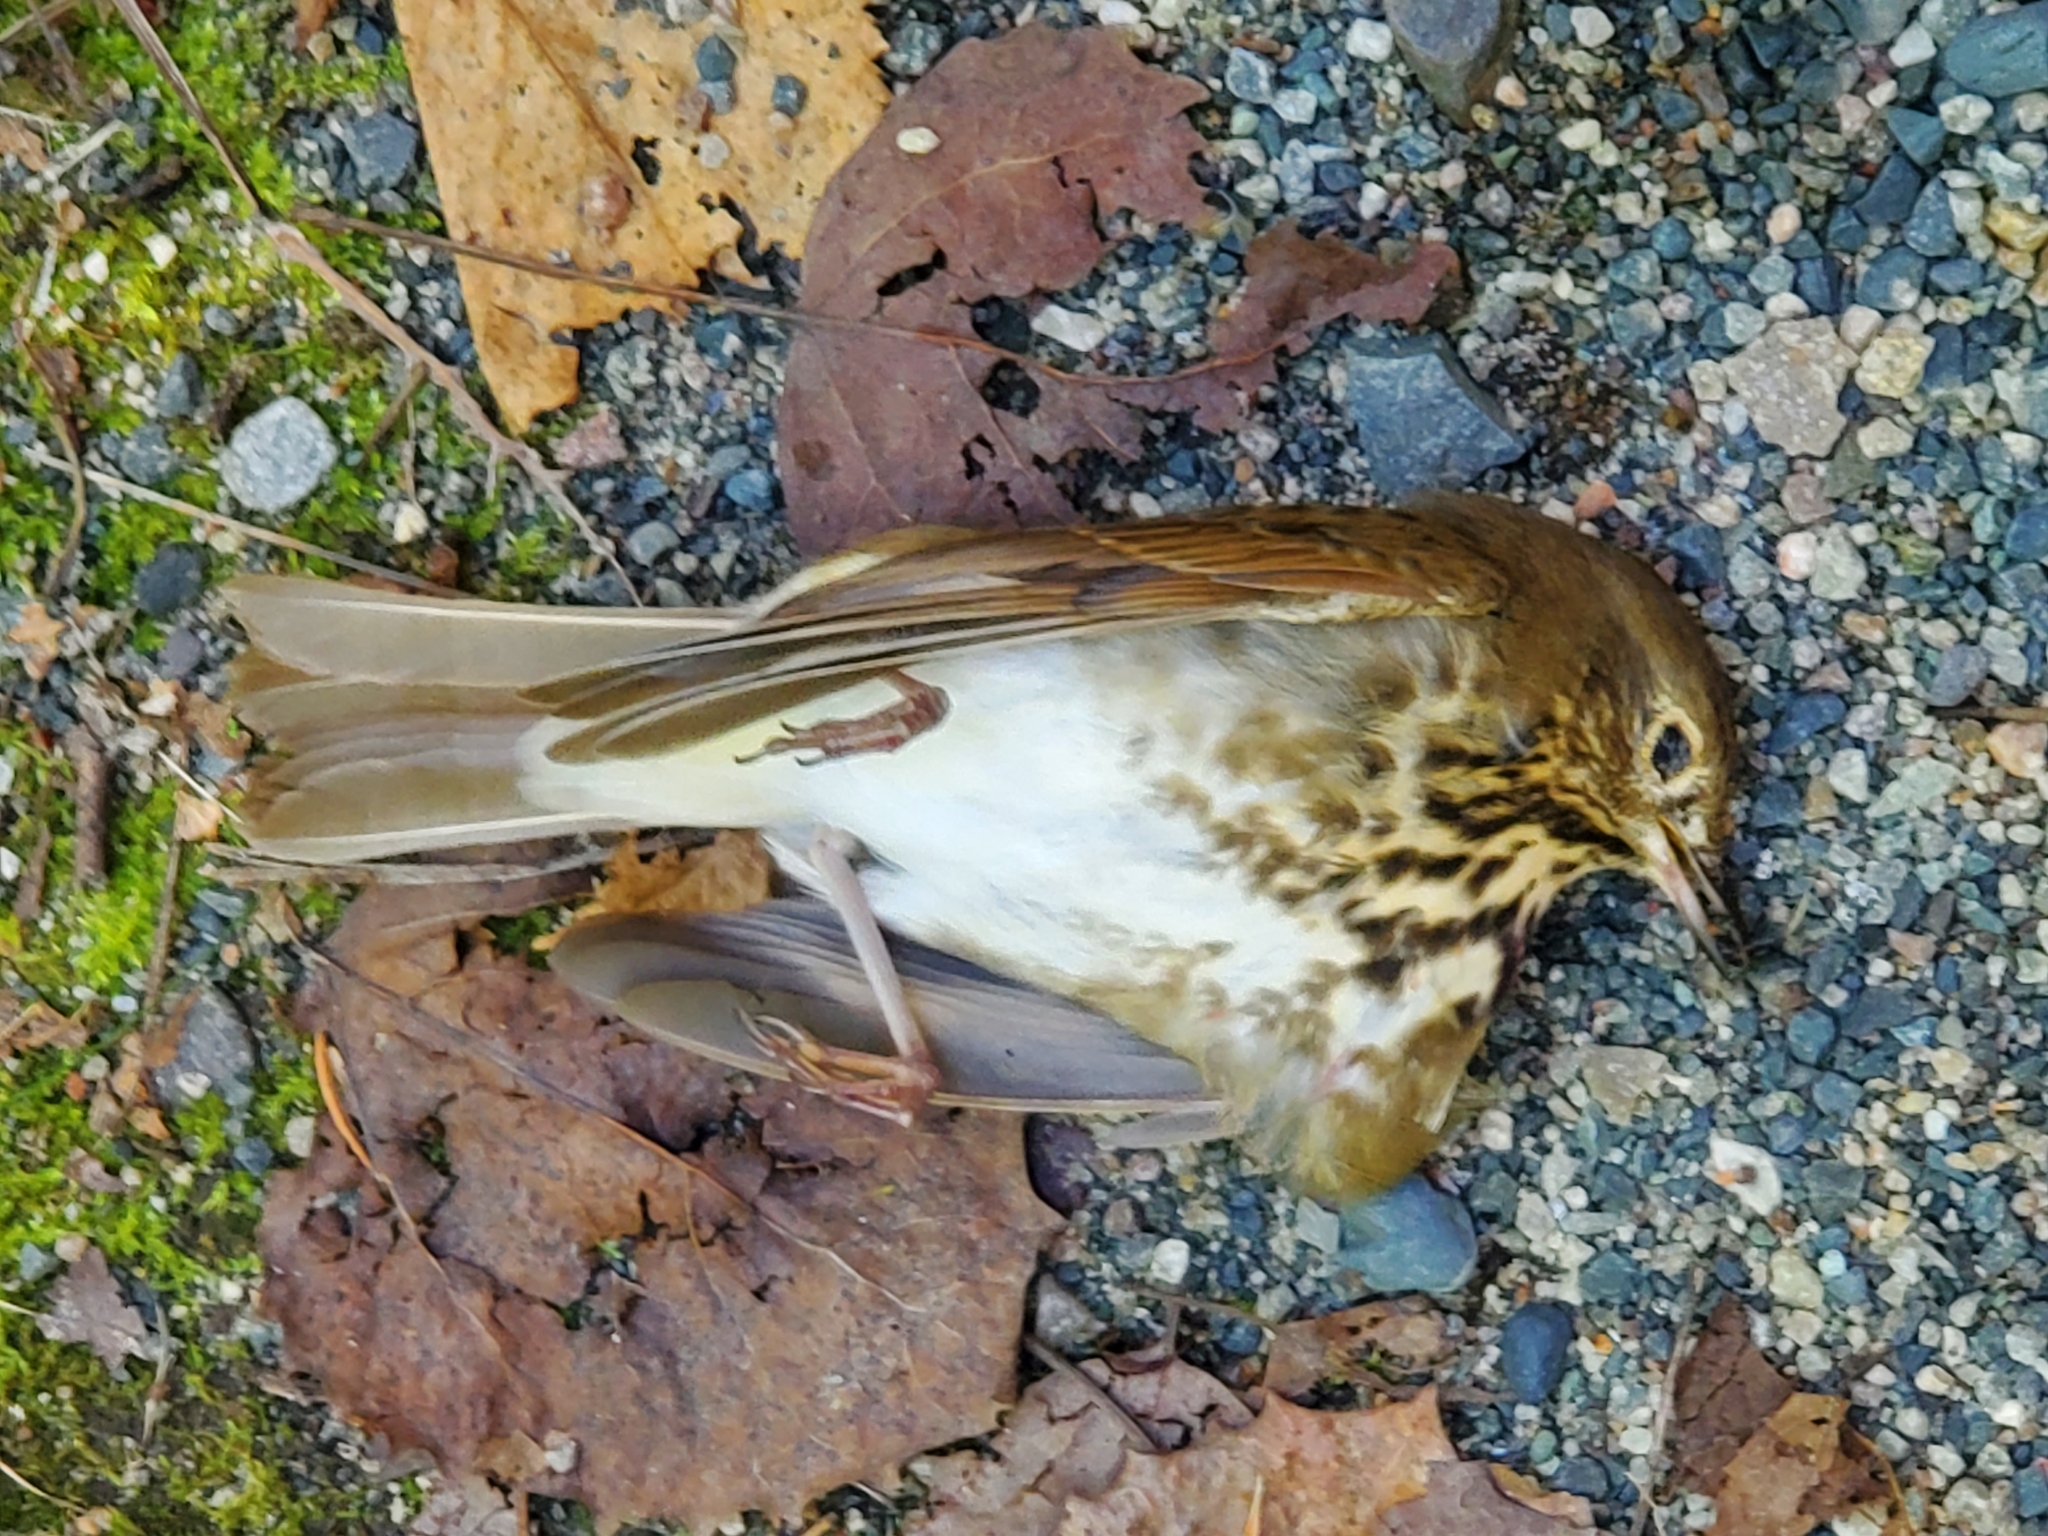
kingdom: Animalia
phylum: Chordata
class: Aves
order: Passeriformes
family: Turdidae
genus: Catharus
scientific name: Catharus guttatus
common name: Hermit thrush
